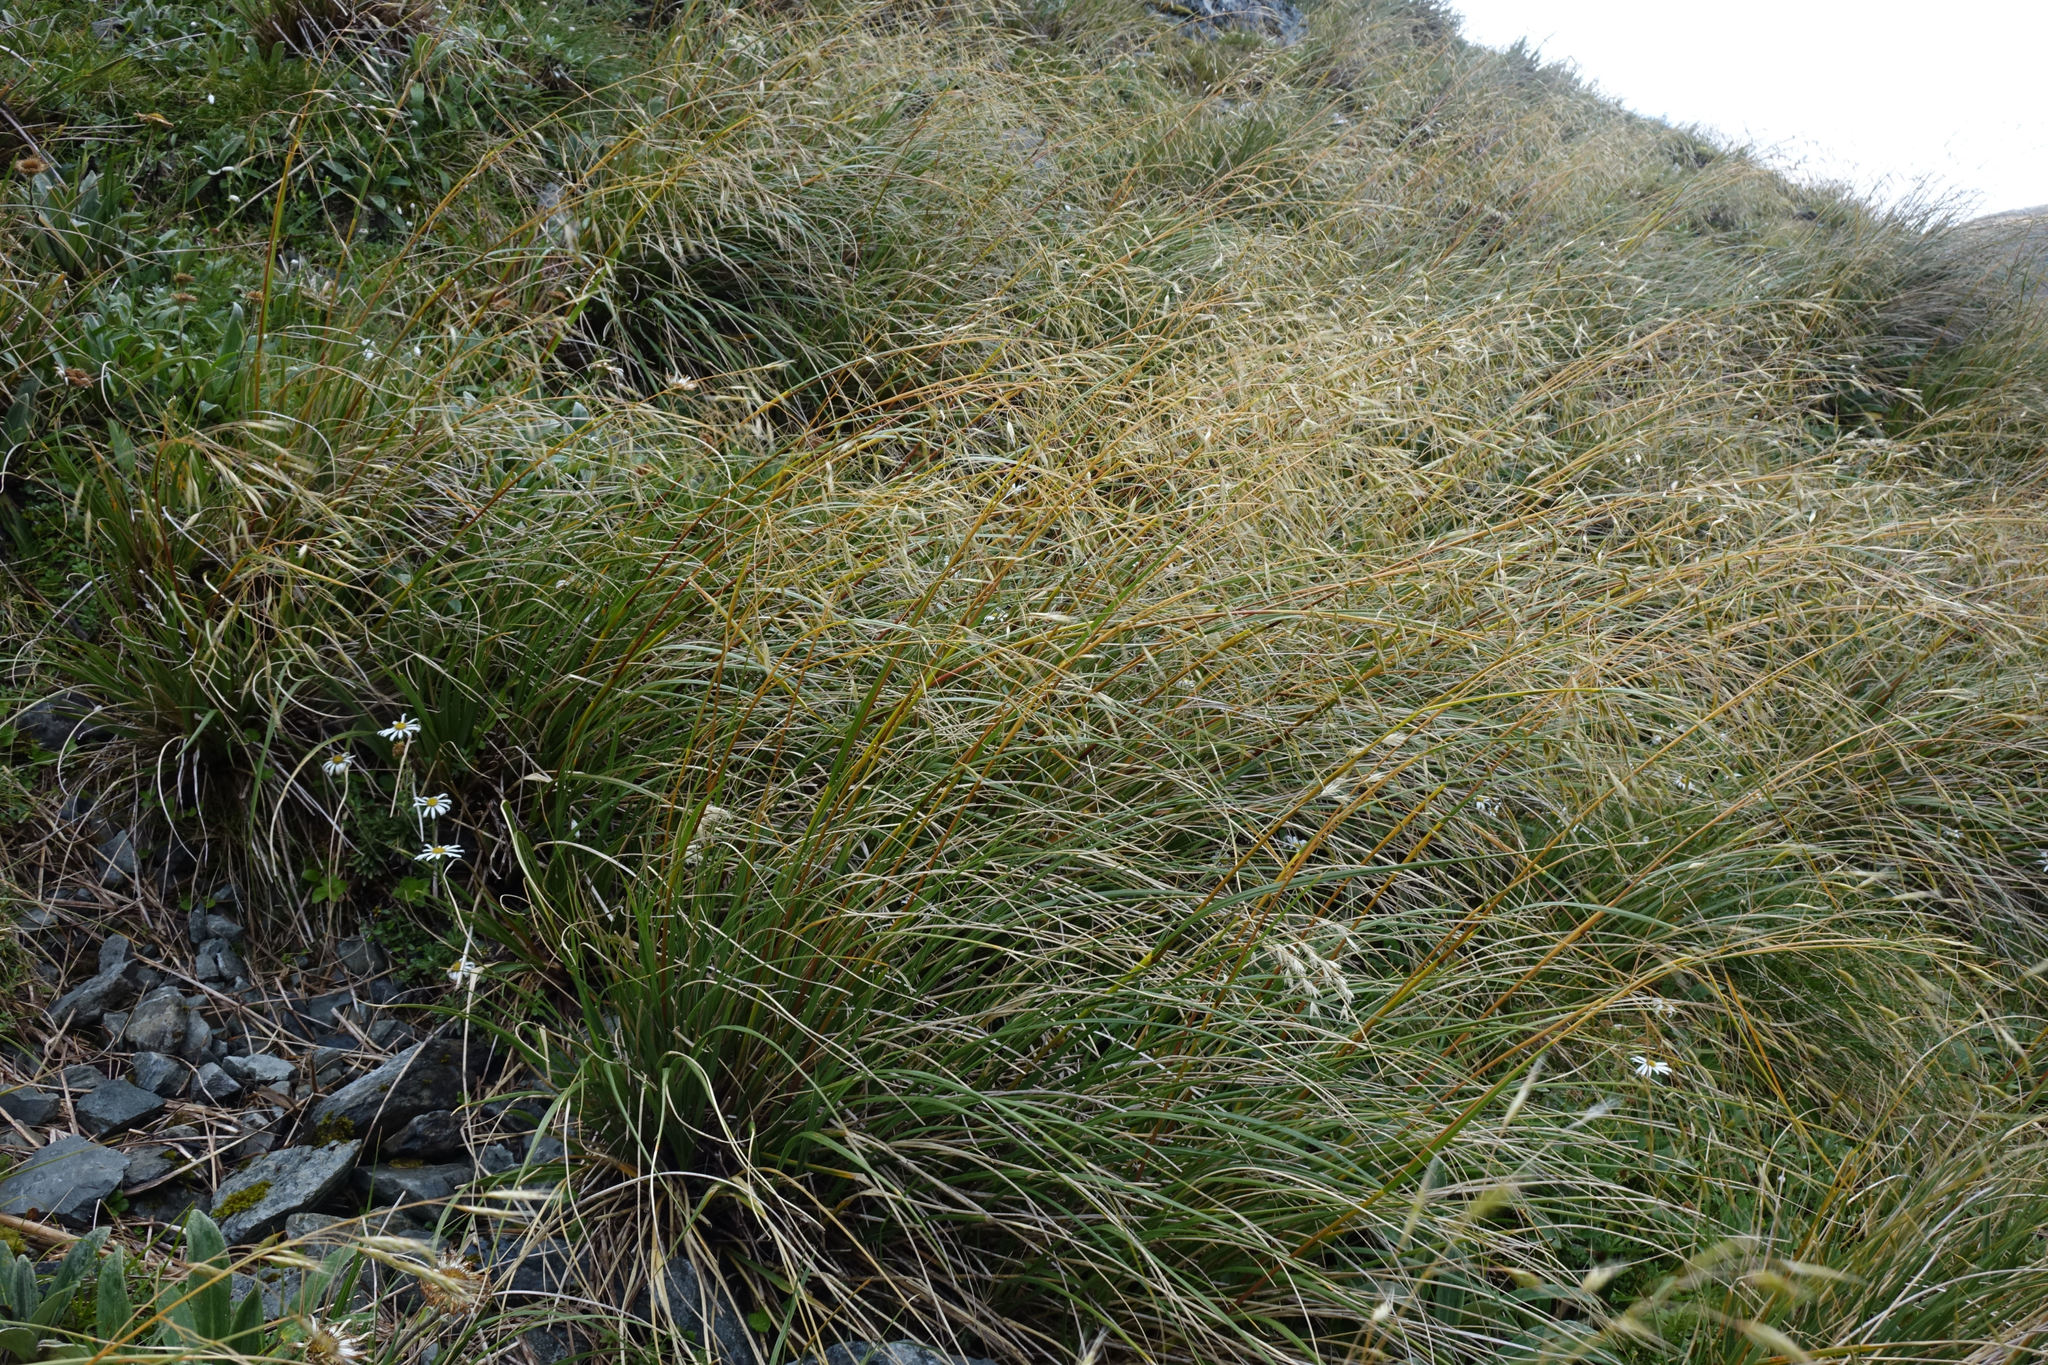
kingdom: Plantae
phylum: Tracheophyta
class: Liliopsida
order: Poales
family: Poaceae
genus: Chionochloa
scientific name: Chionochloa pallens
